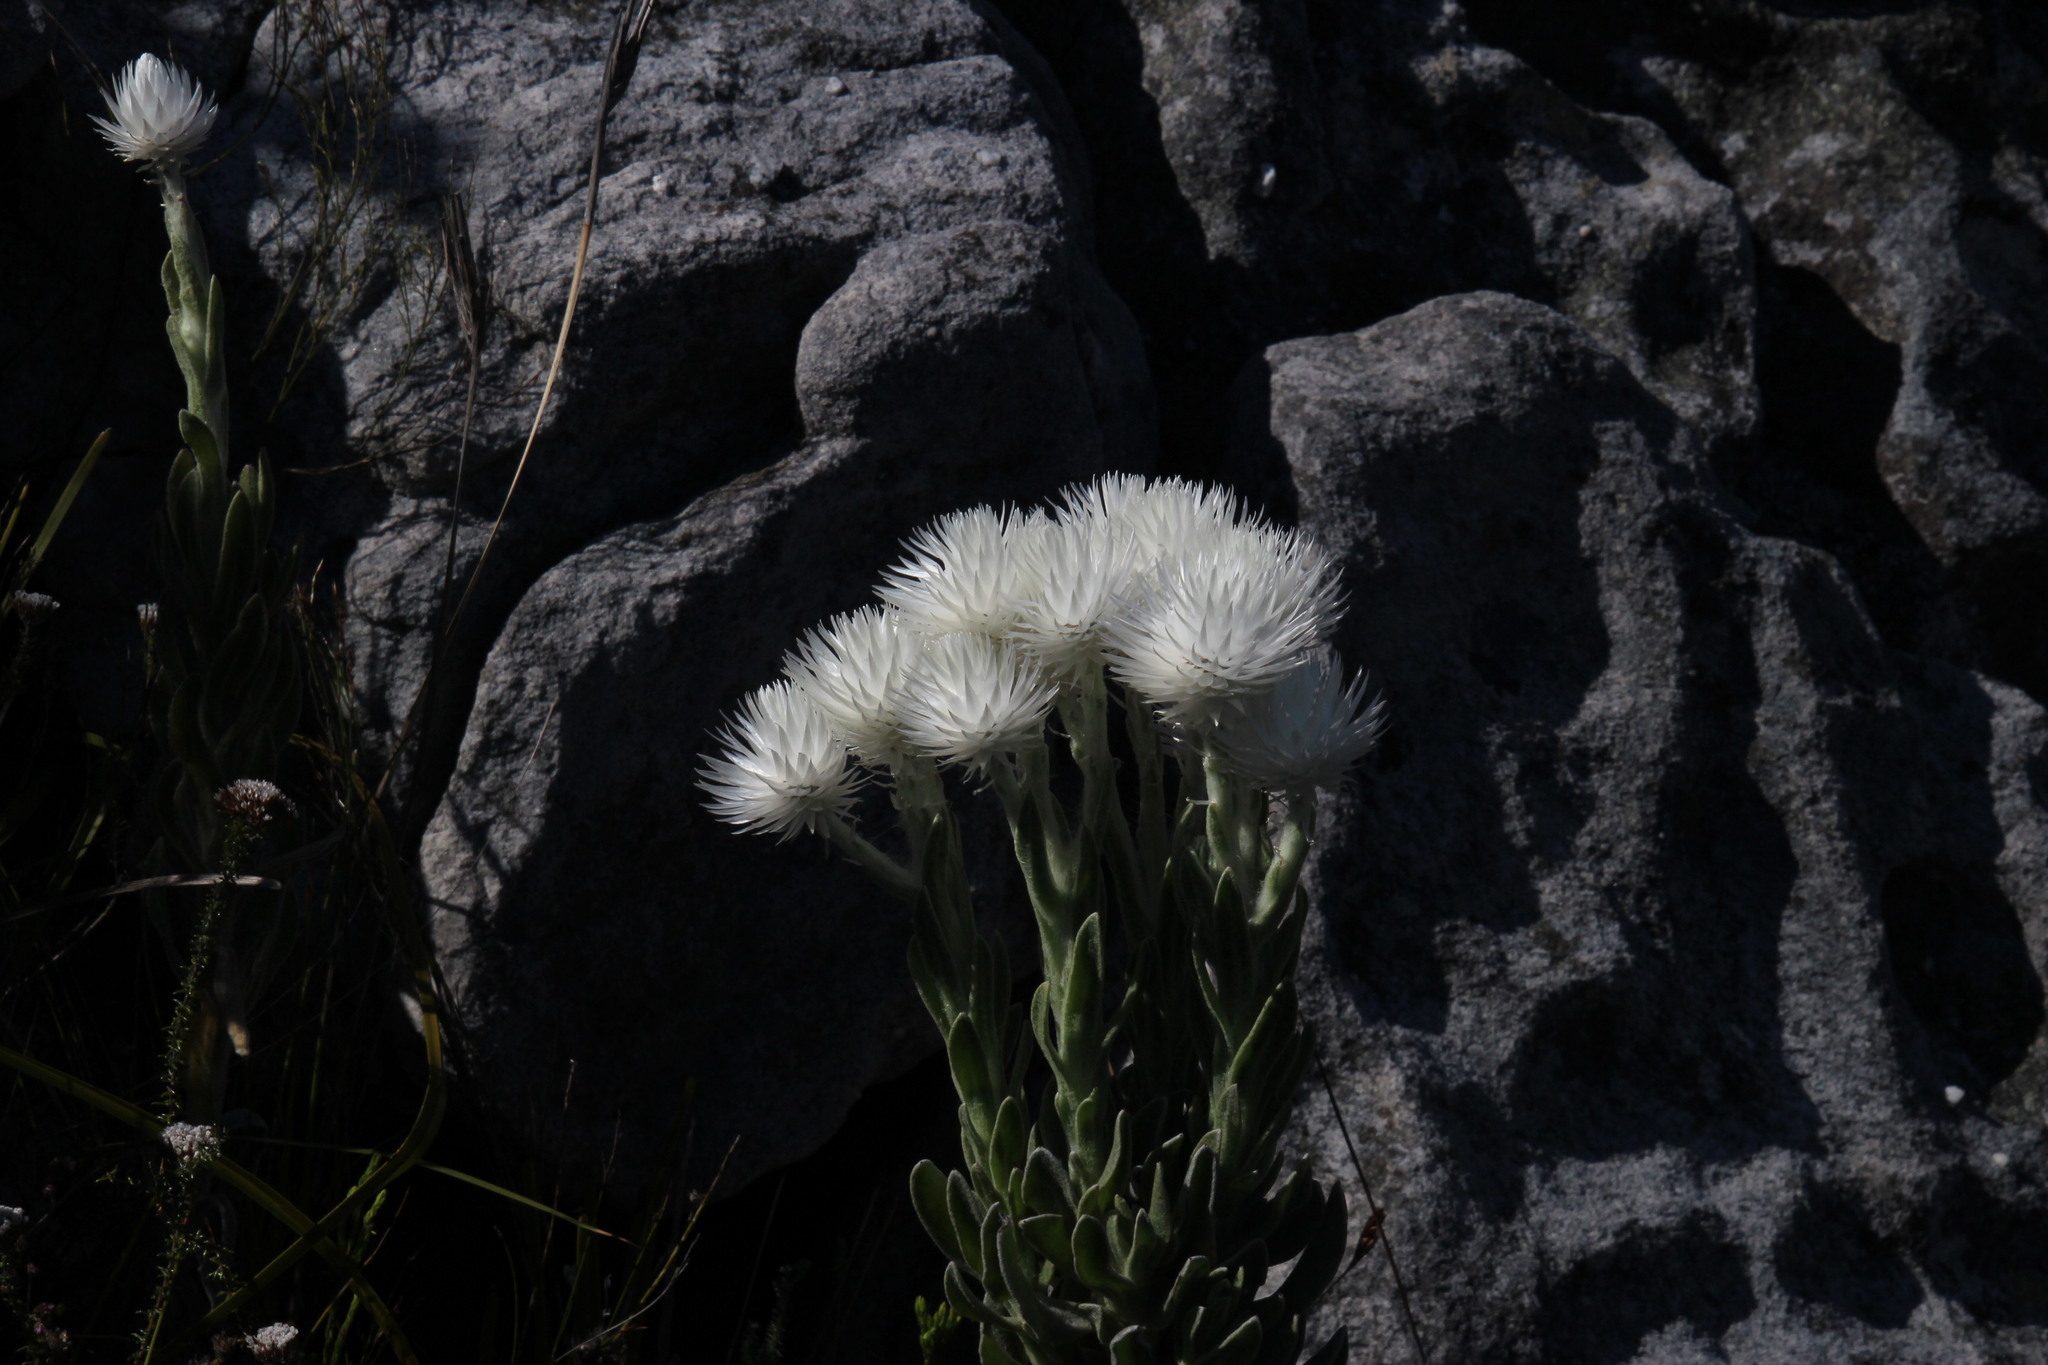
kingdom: Plantae
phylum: Tracheophyta
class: Magnoliopsida
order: Asterales
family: Asteraceae
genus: Syncarpha
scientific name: Syncarpha vestita
